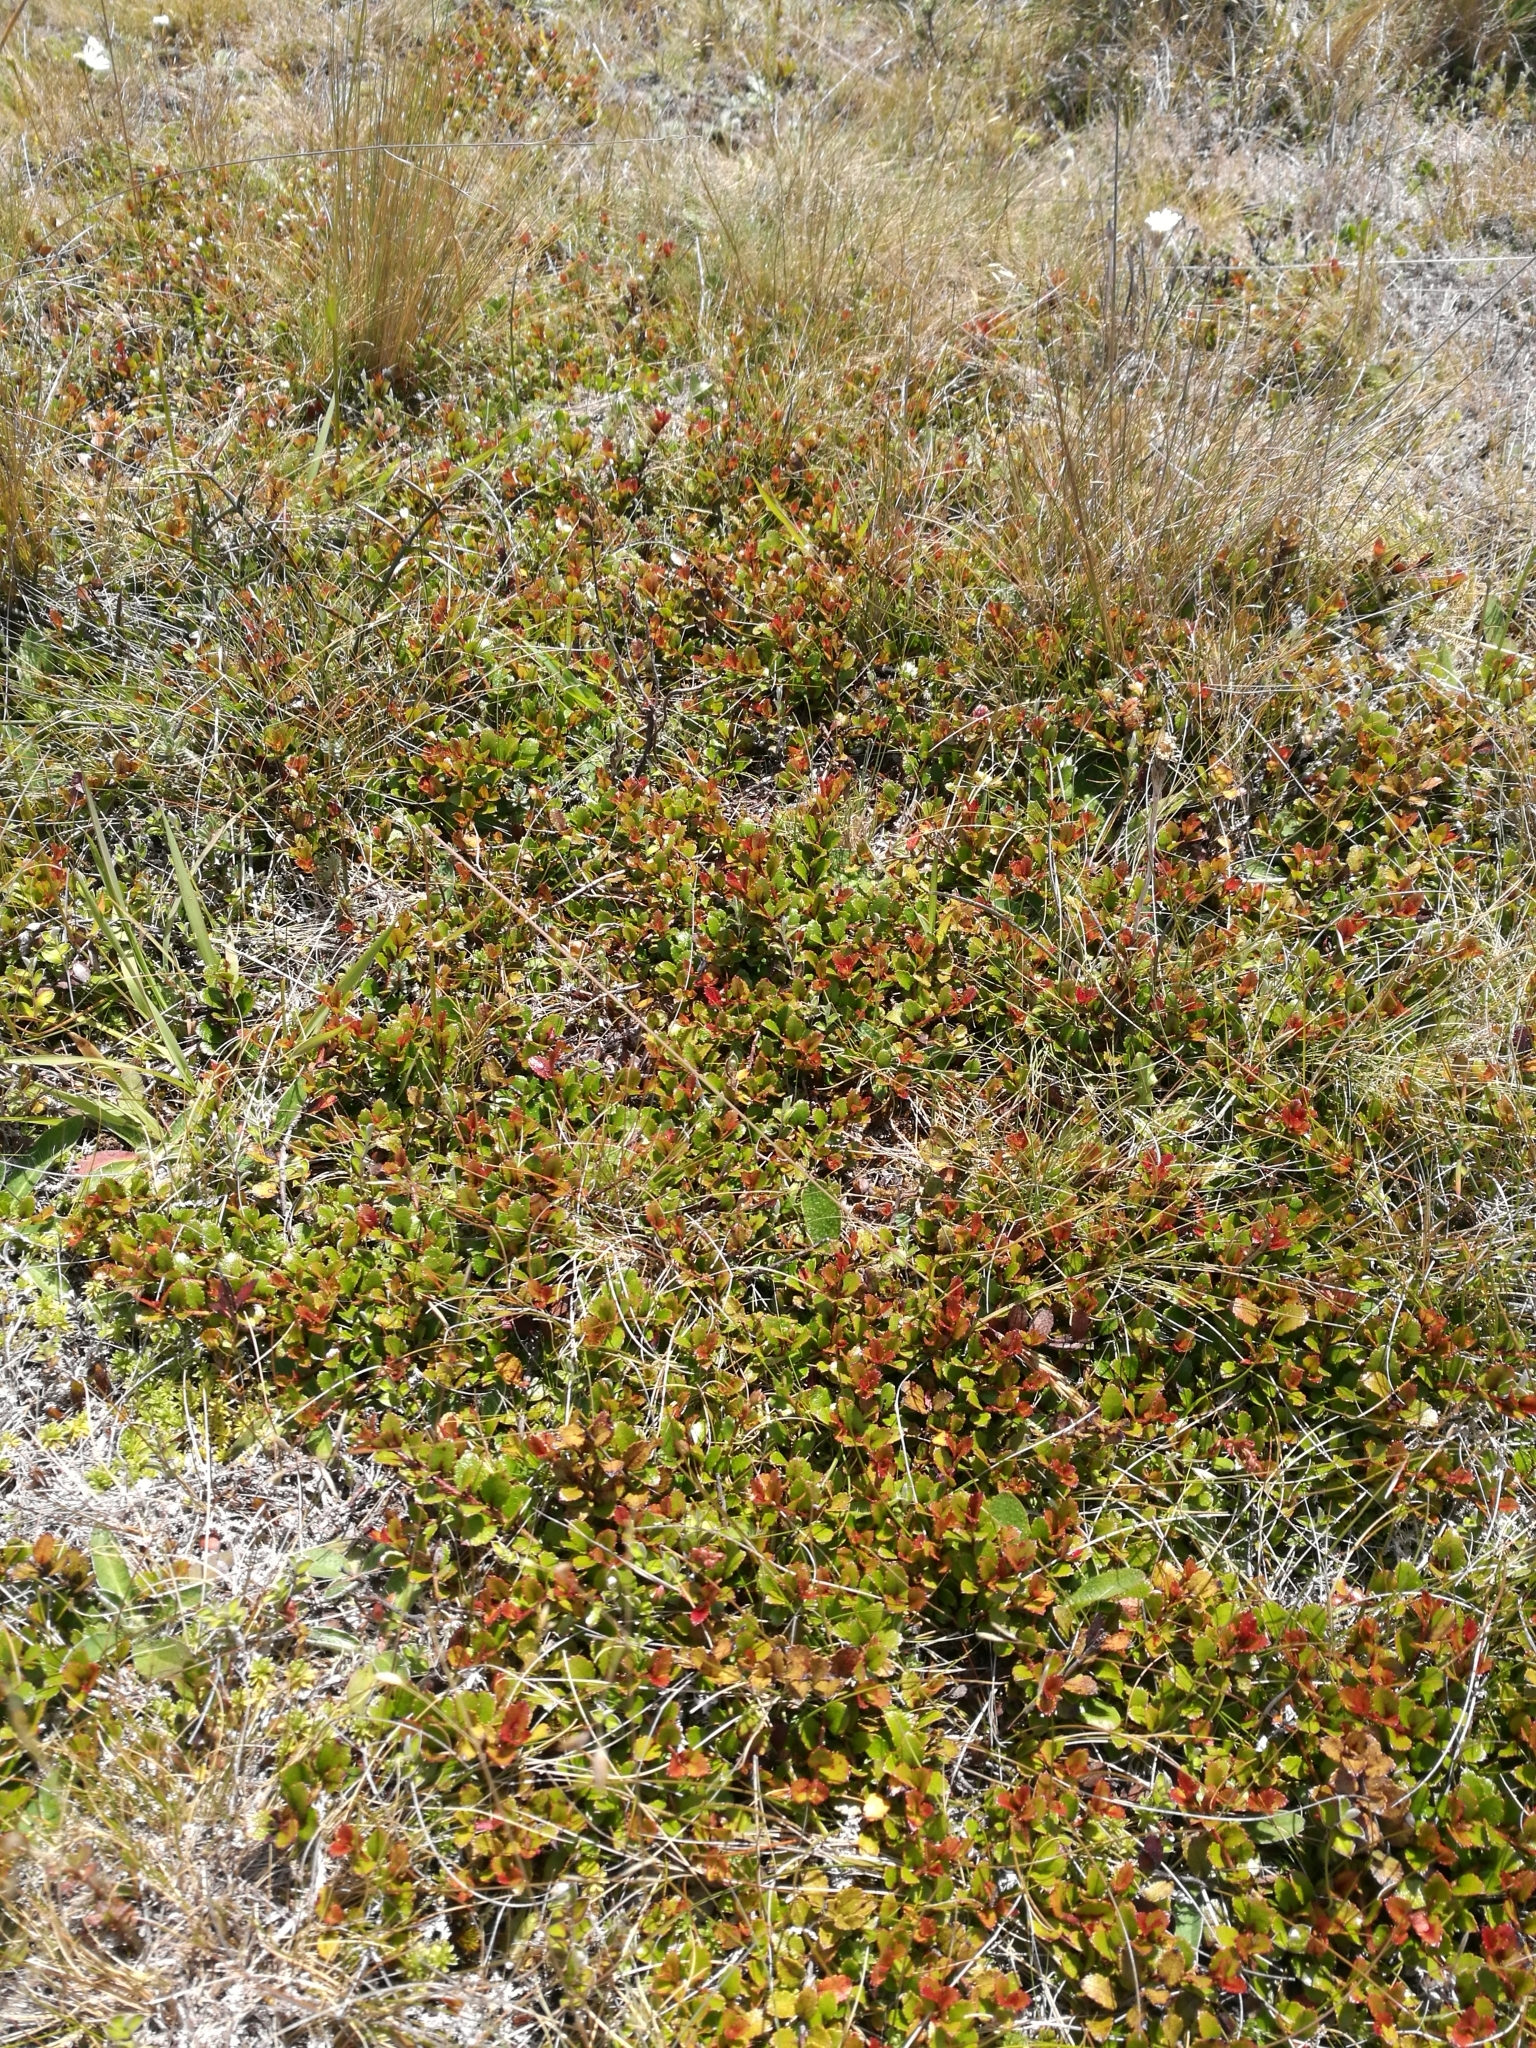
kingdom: Plantae
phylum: Tracheophyta
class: Magnoliopsida
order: Ericales
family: Ericaceae
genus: Gaultheria
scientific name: Gaultheria depressa
